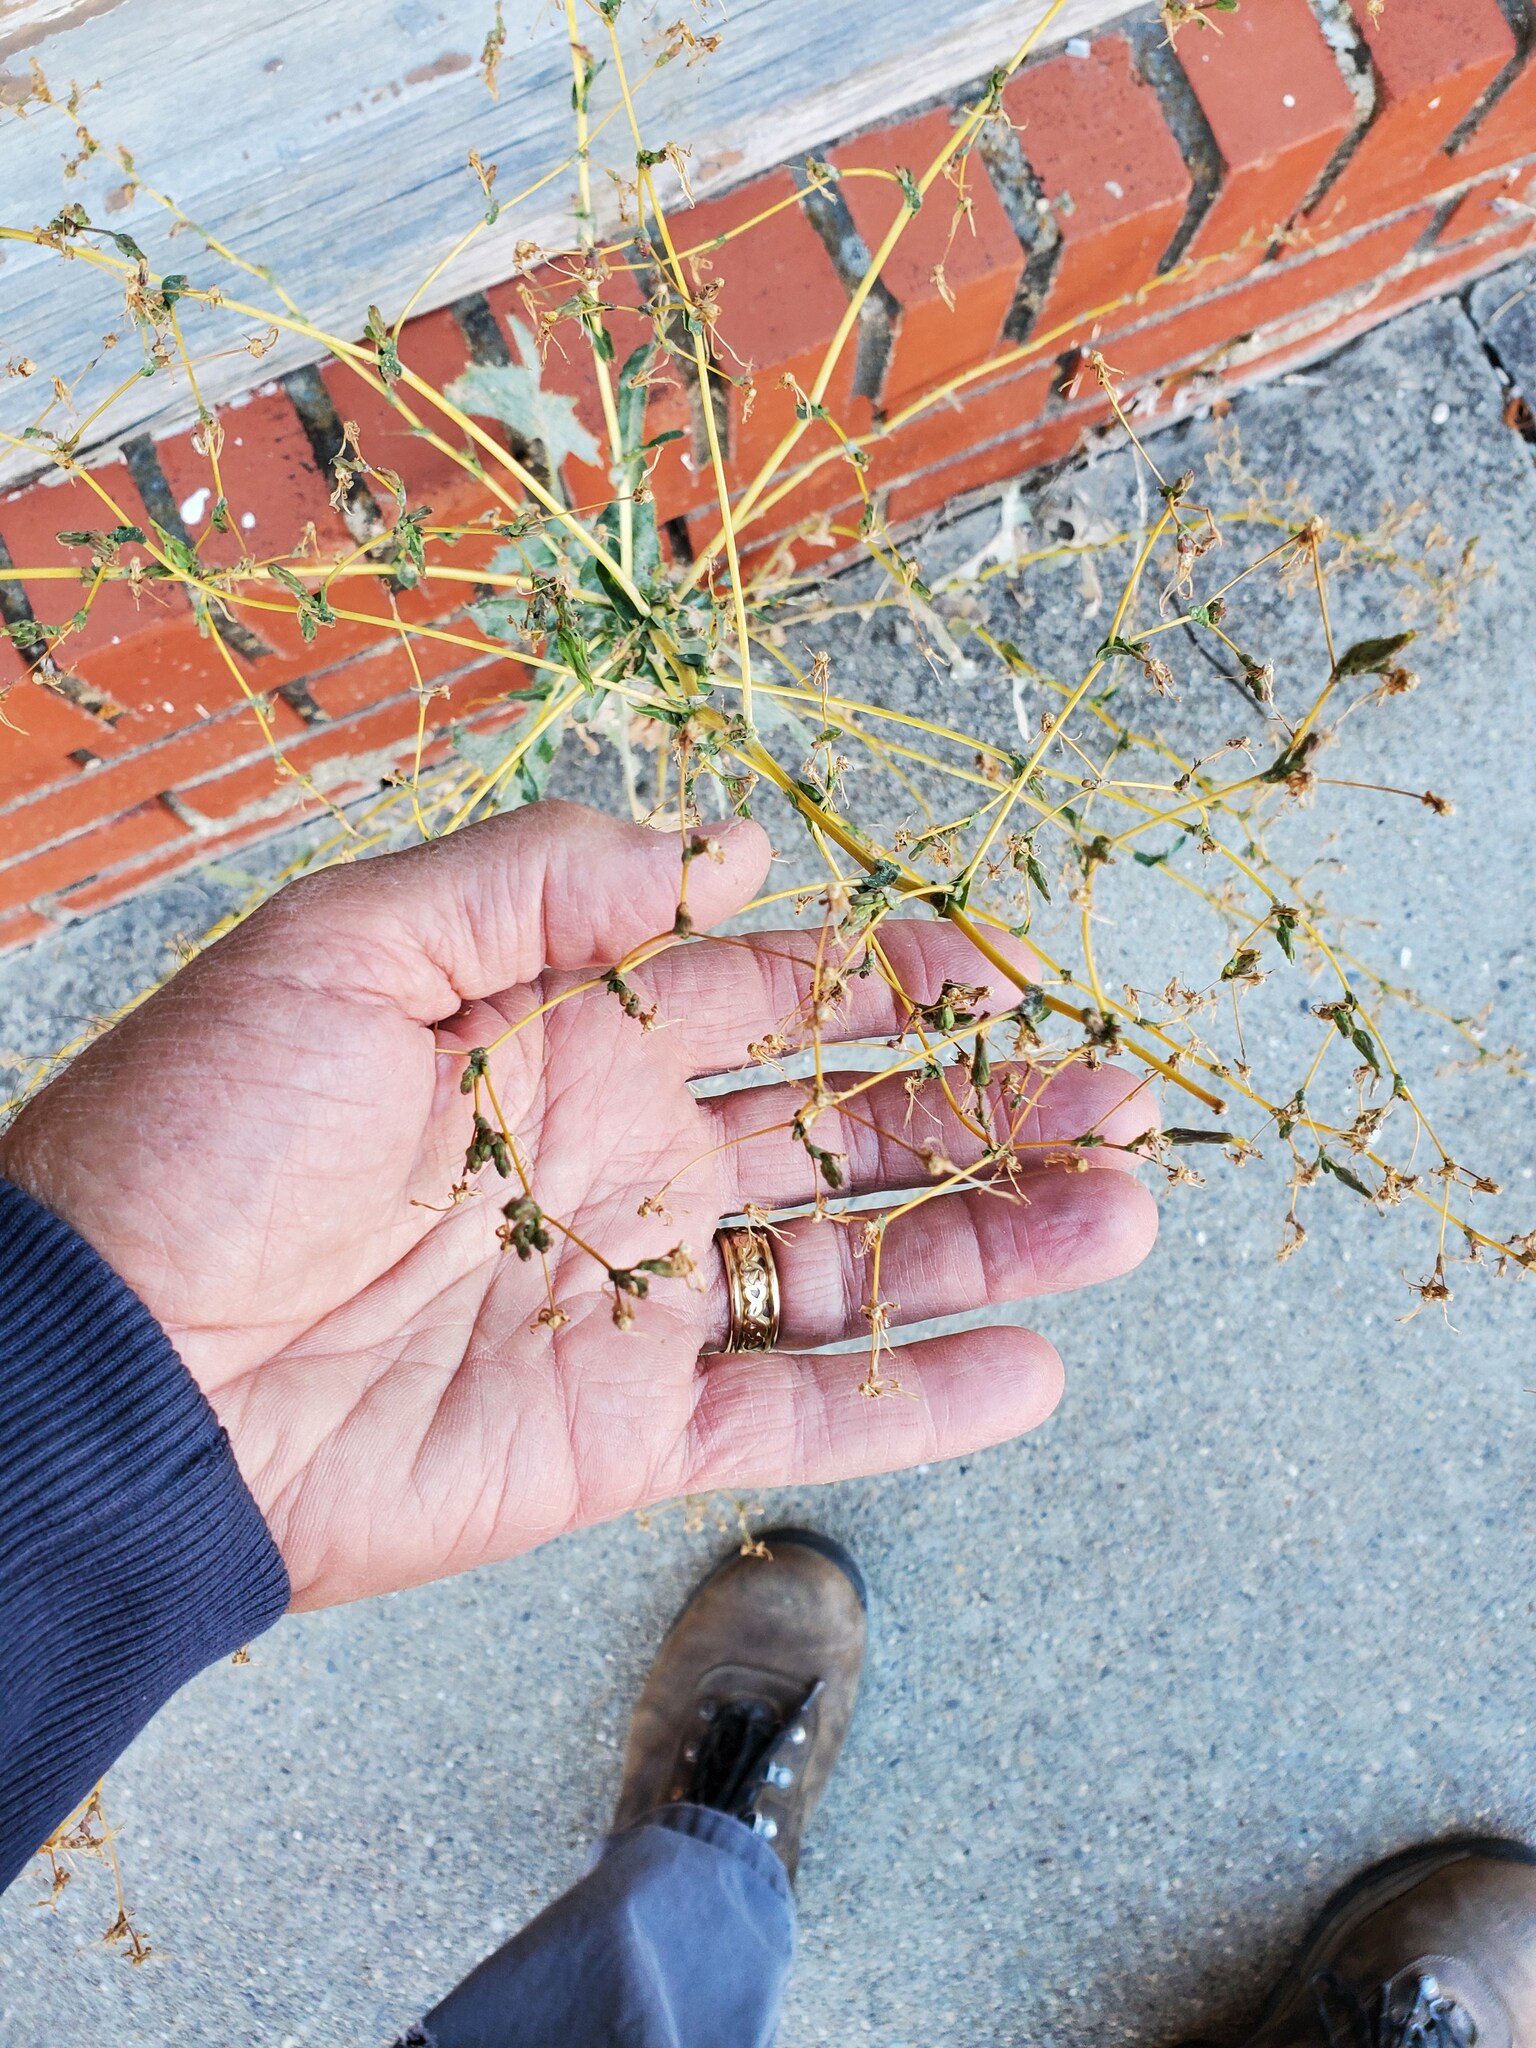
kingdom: Plantae
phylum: Tracheophyta
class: Magnoliopsida
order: Asterales
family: Asteraceae
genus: Lactuca
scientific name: Lactuca serriola
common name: Prickly lettuce
